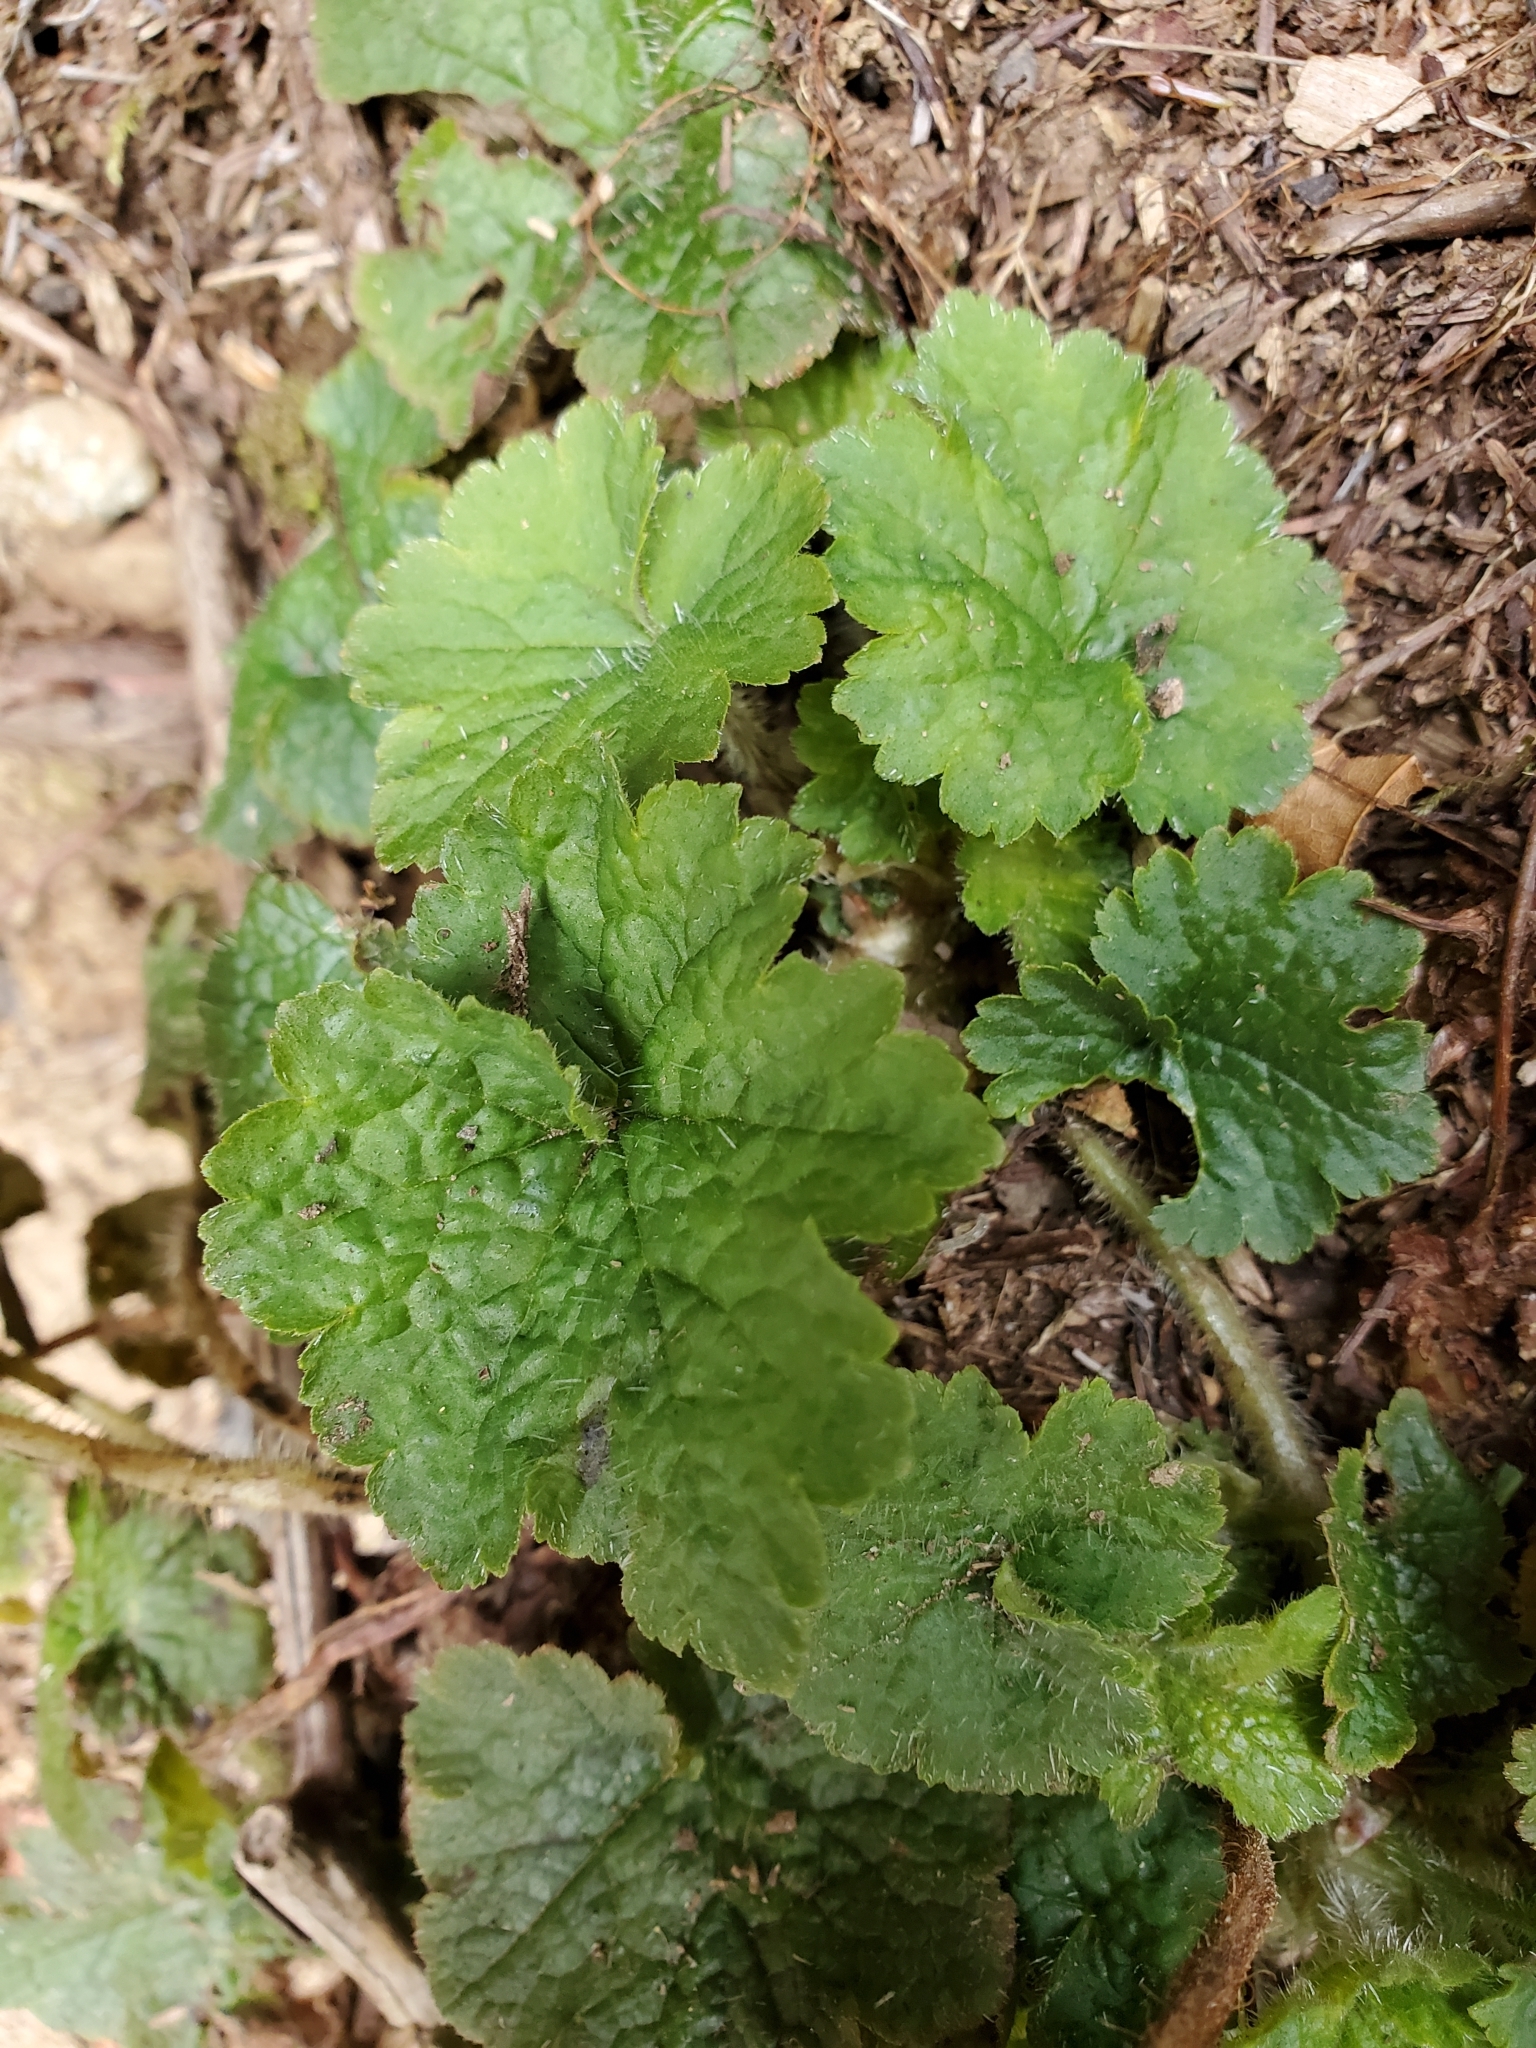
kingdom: Plantae
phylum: Tracheophyta
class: Magnoliopsida
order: Saxifragales
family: Saxifragaceae
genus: Tellima
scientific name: Tellima grandiflora
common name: Fringecups
